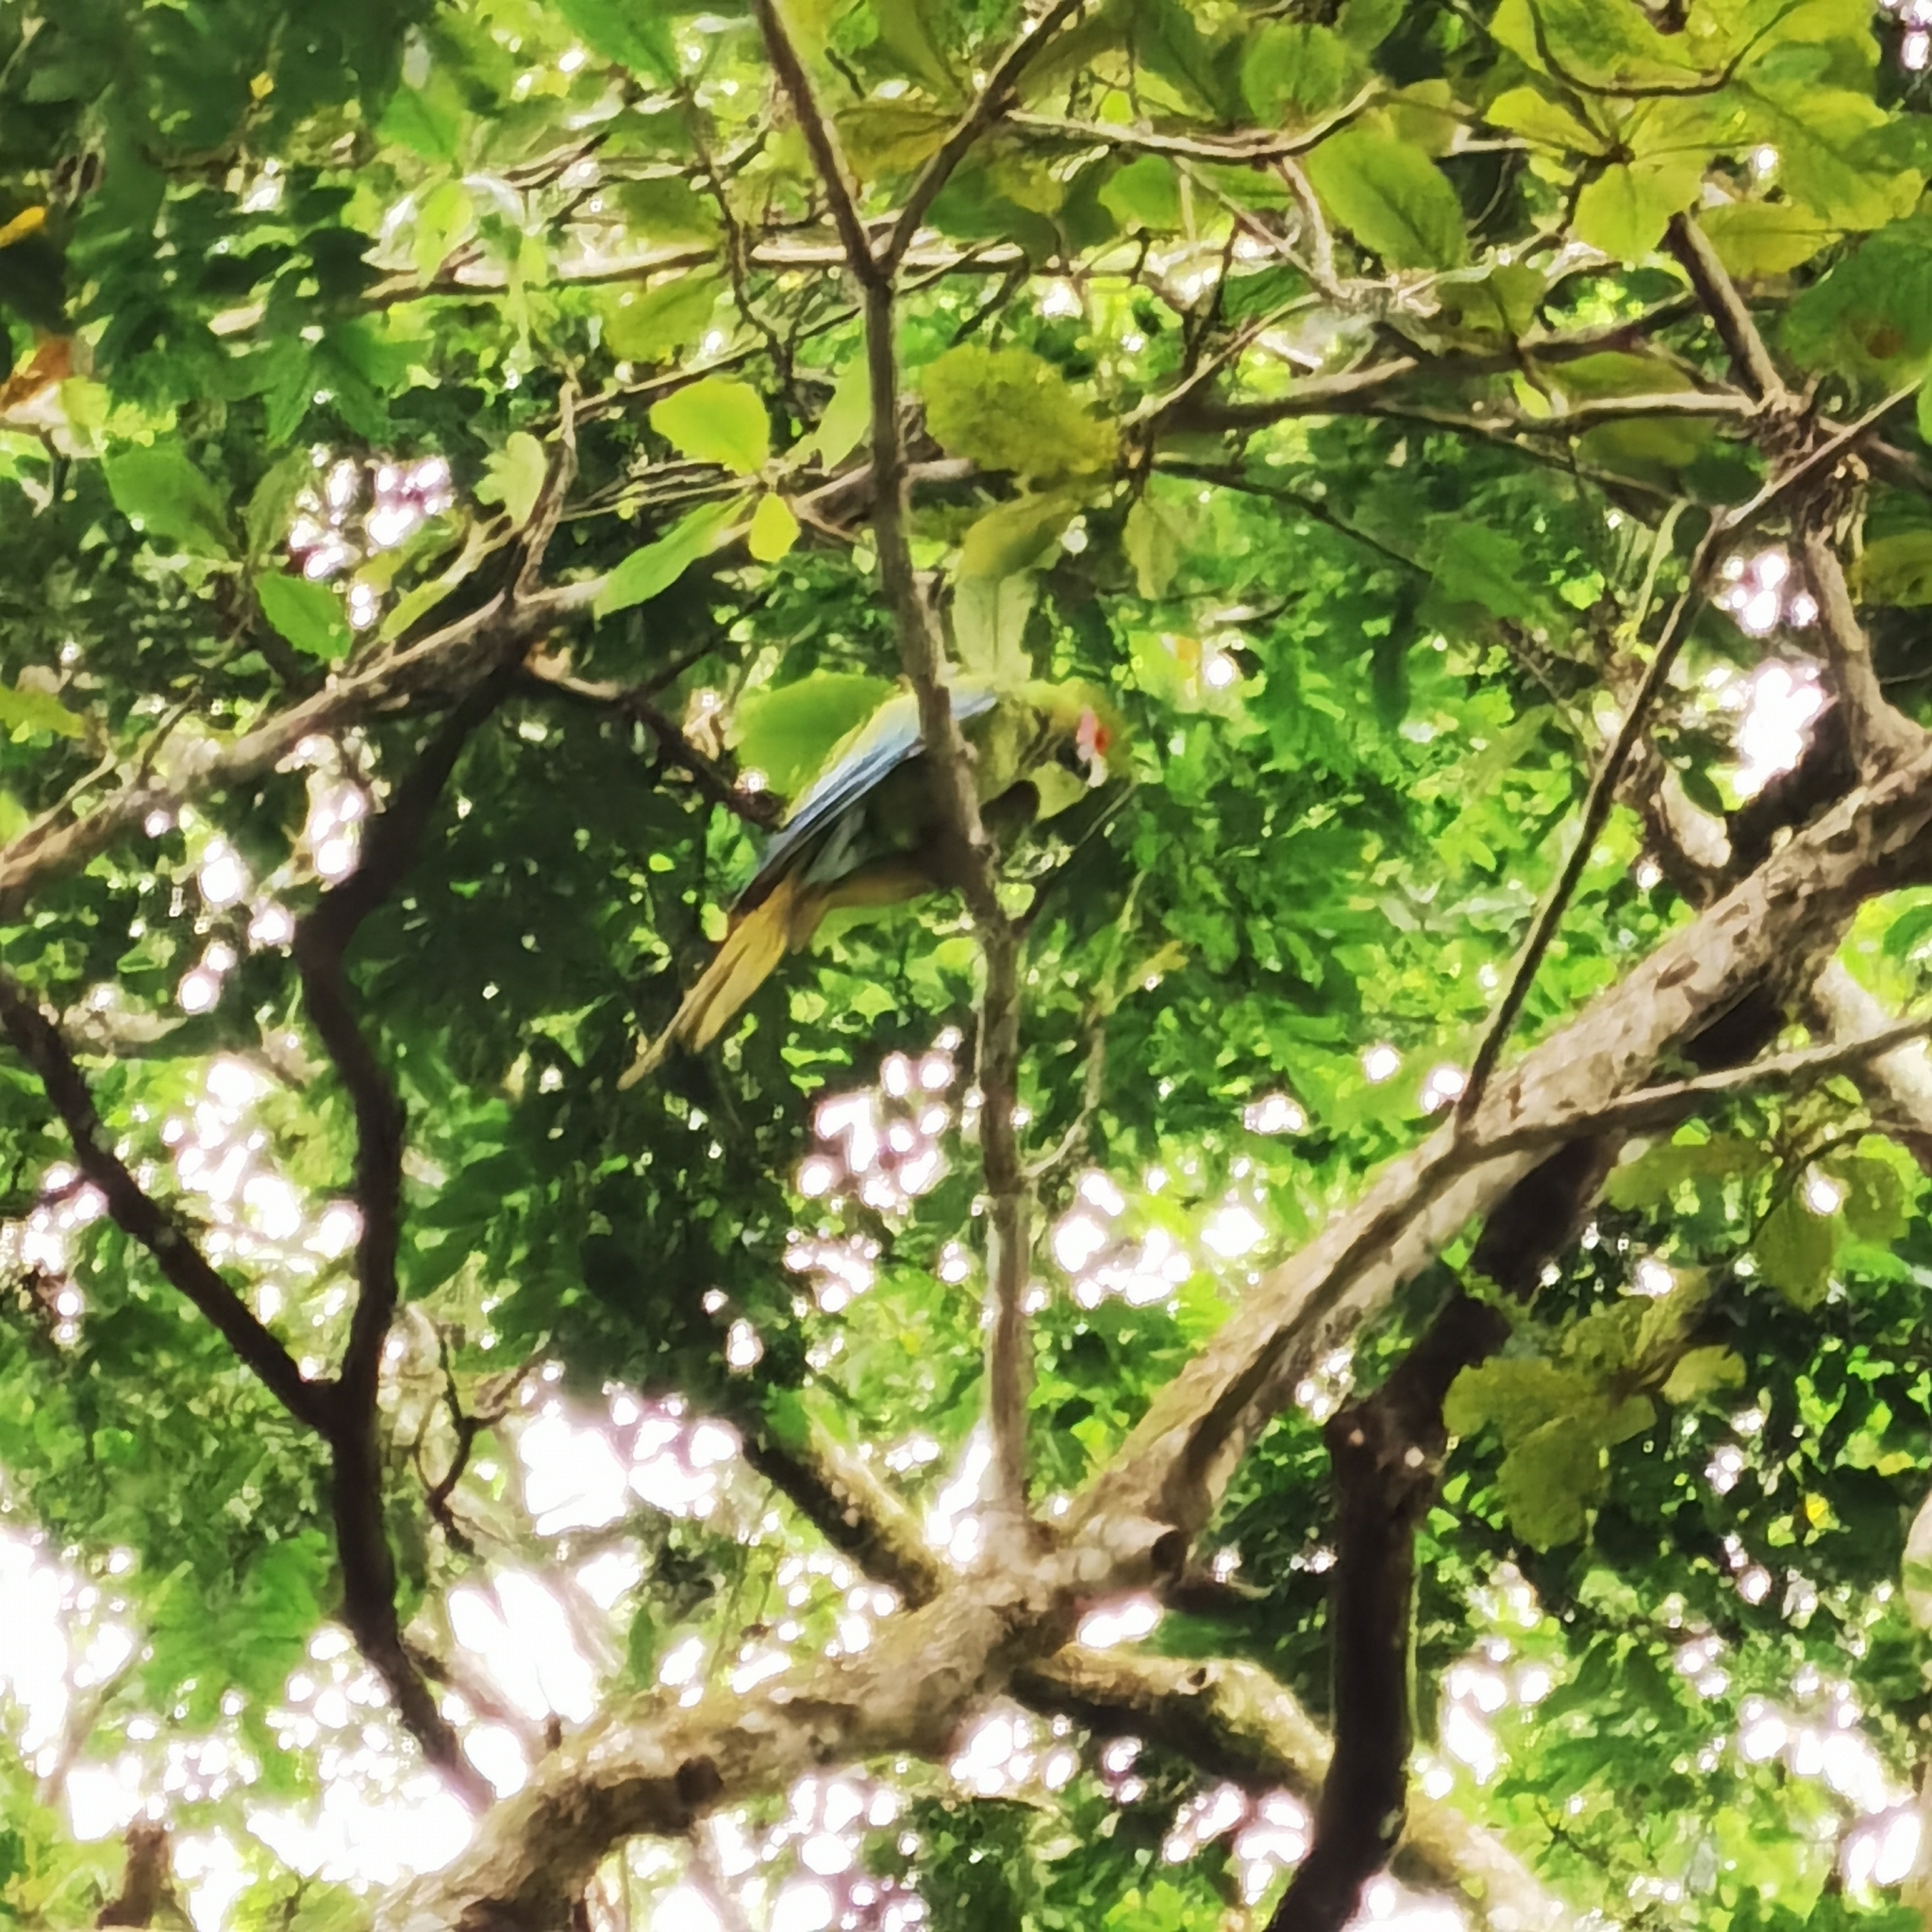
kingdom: Animalia
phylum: Chordata
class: Aves
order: Psittaciformes
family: Psittacidae
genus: Ara
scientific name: Ara ambiguus
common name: Great green macaw
